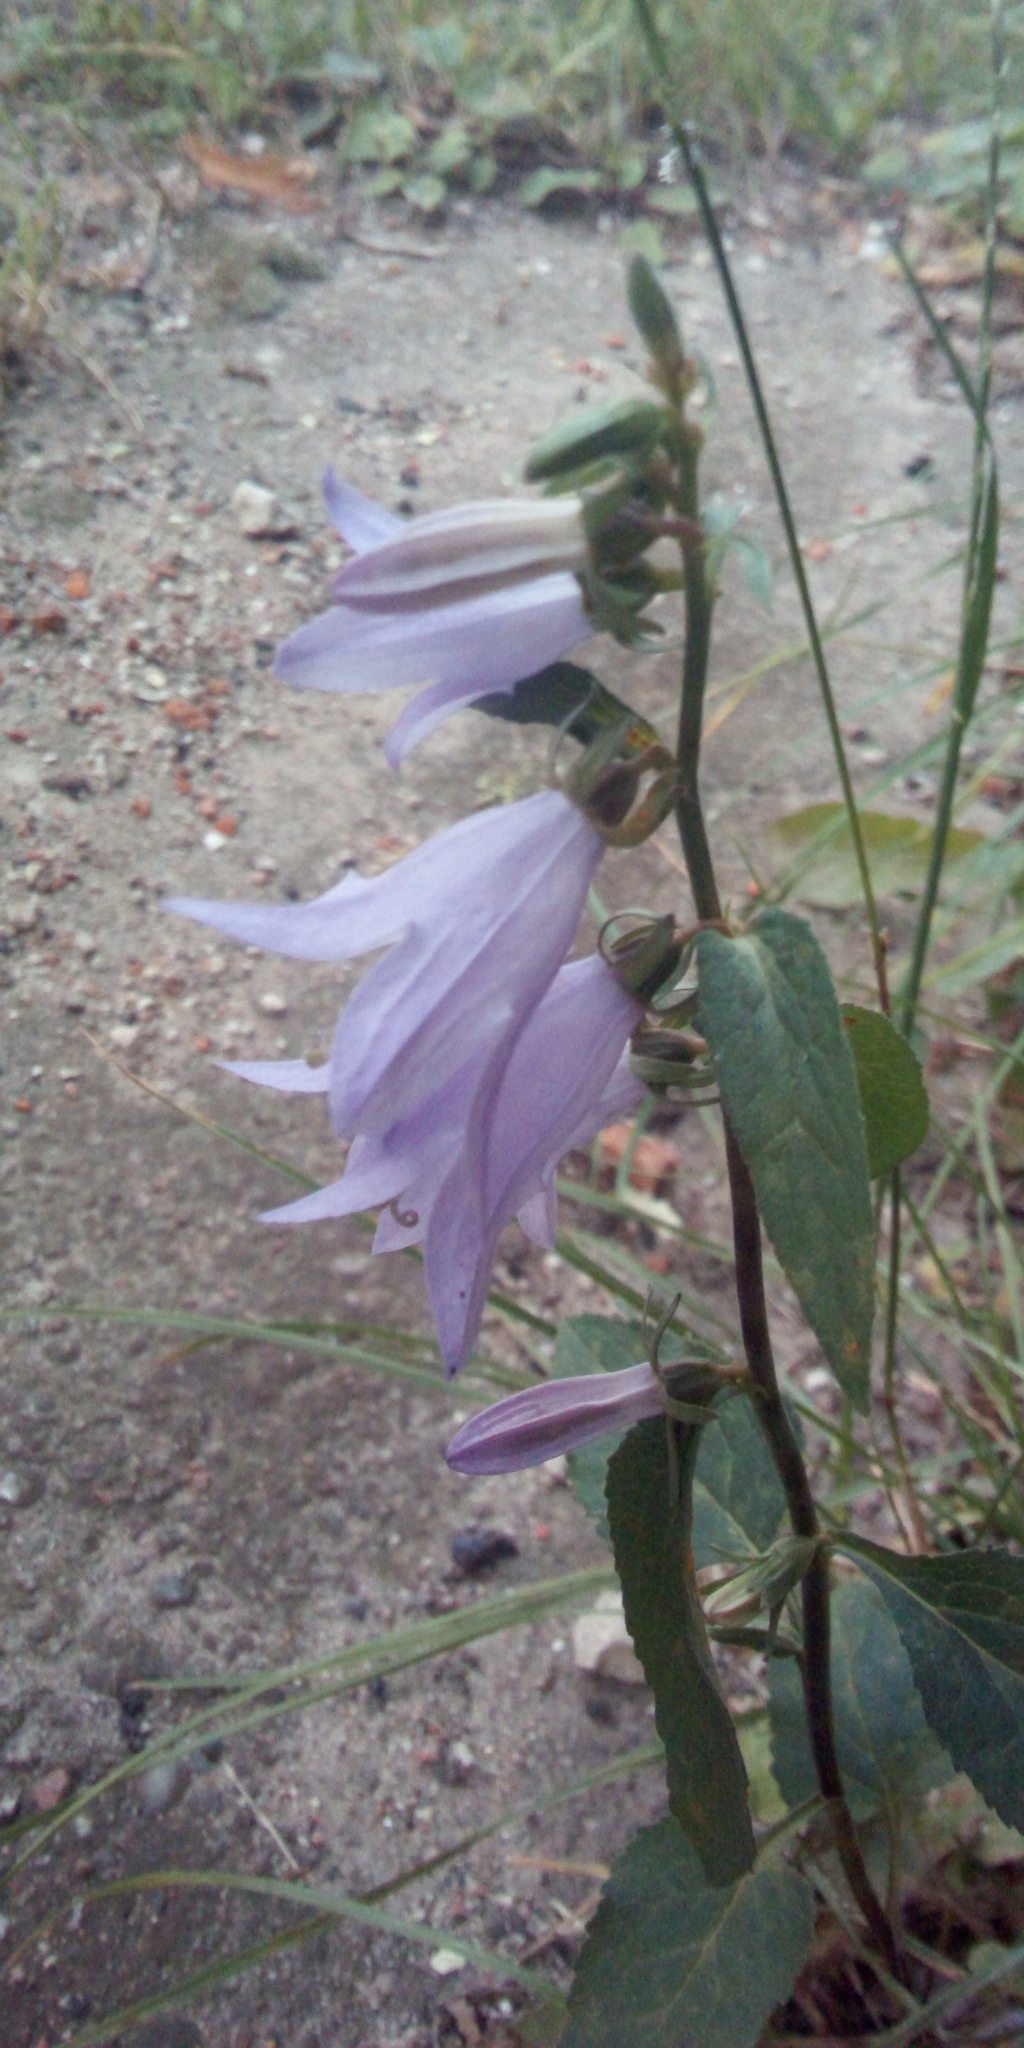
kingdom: Plantae
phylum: Tracheophyta
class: Magnoliopsida
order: Asterales
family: Campanulaceae
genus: Campanula
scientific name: Campanula rapunculoides
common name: Creeping bellflower
